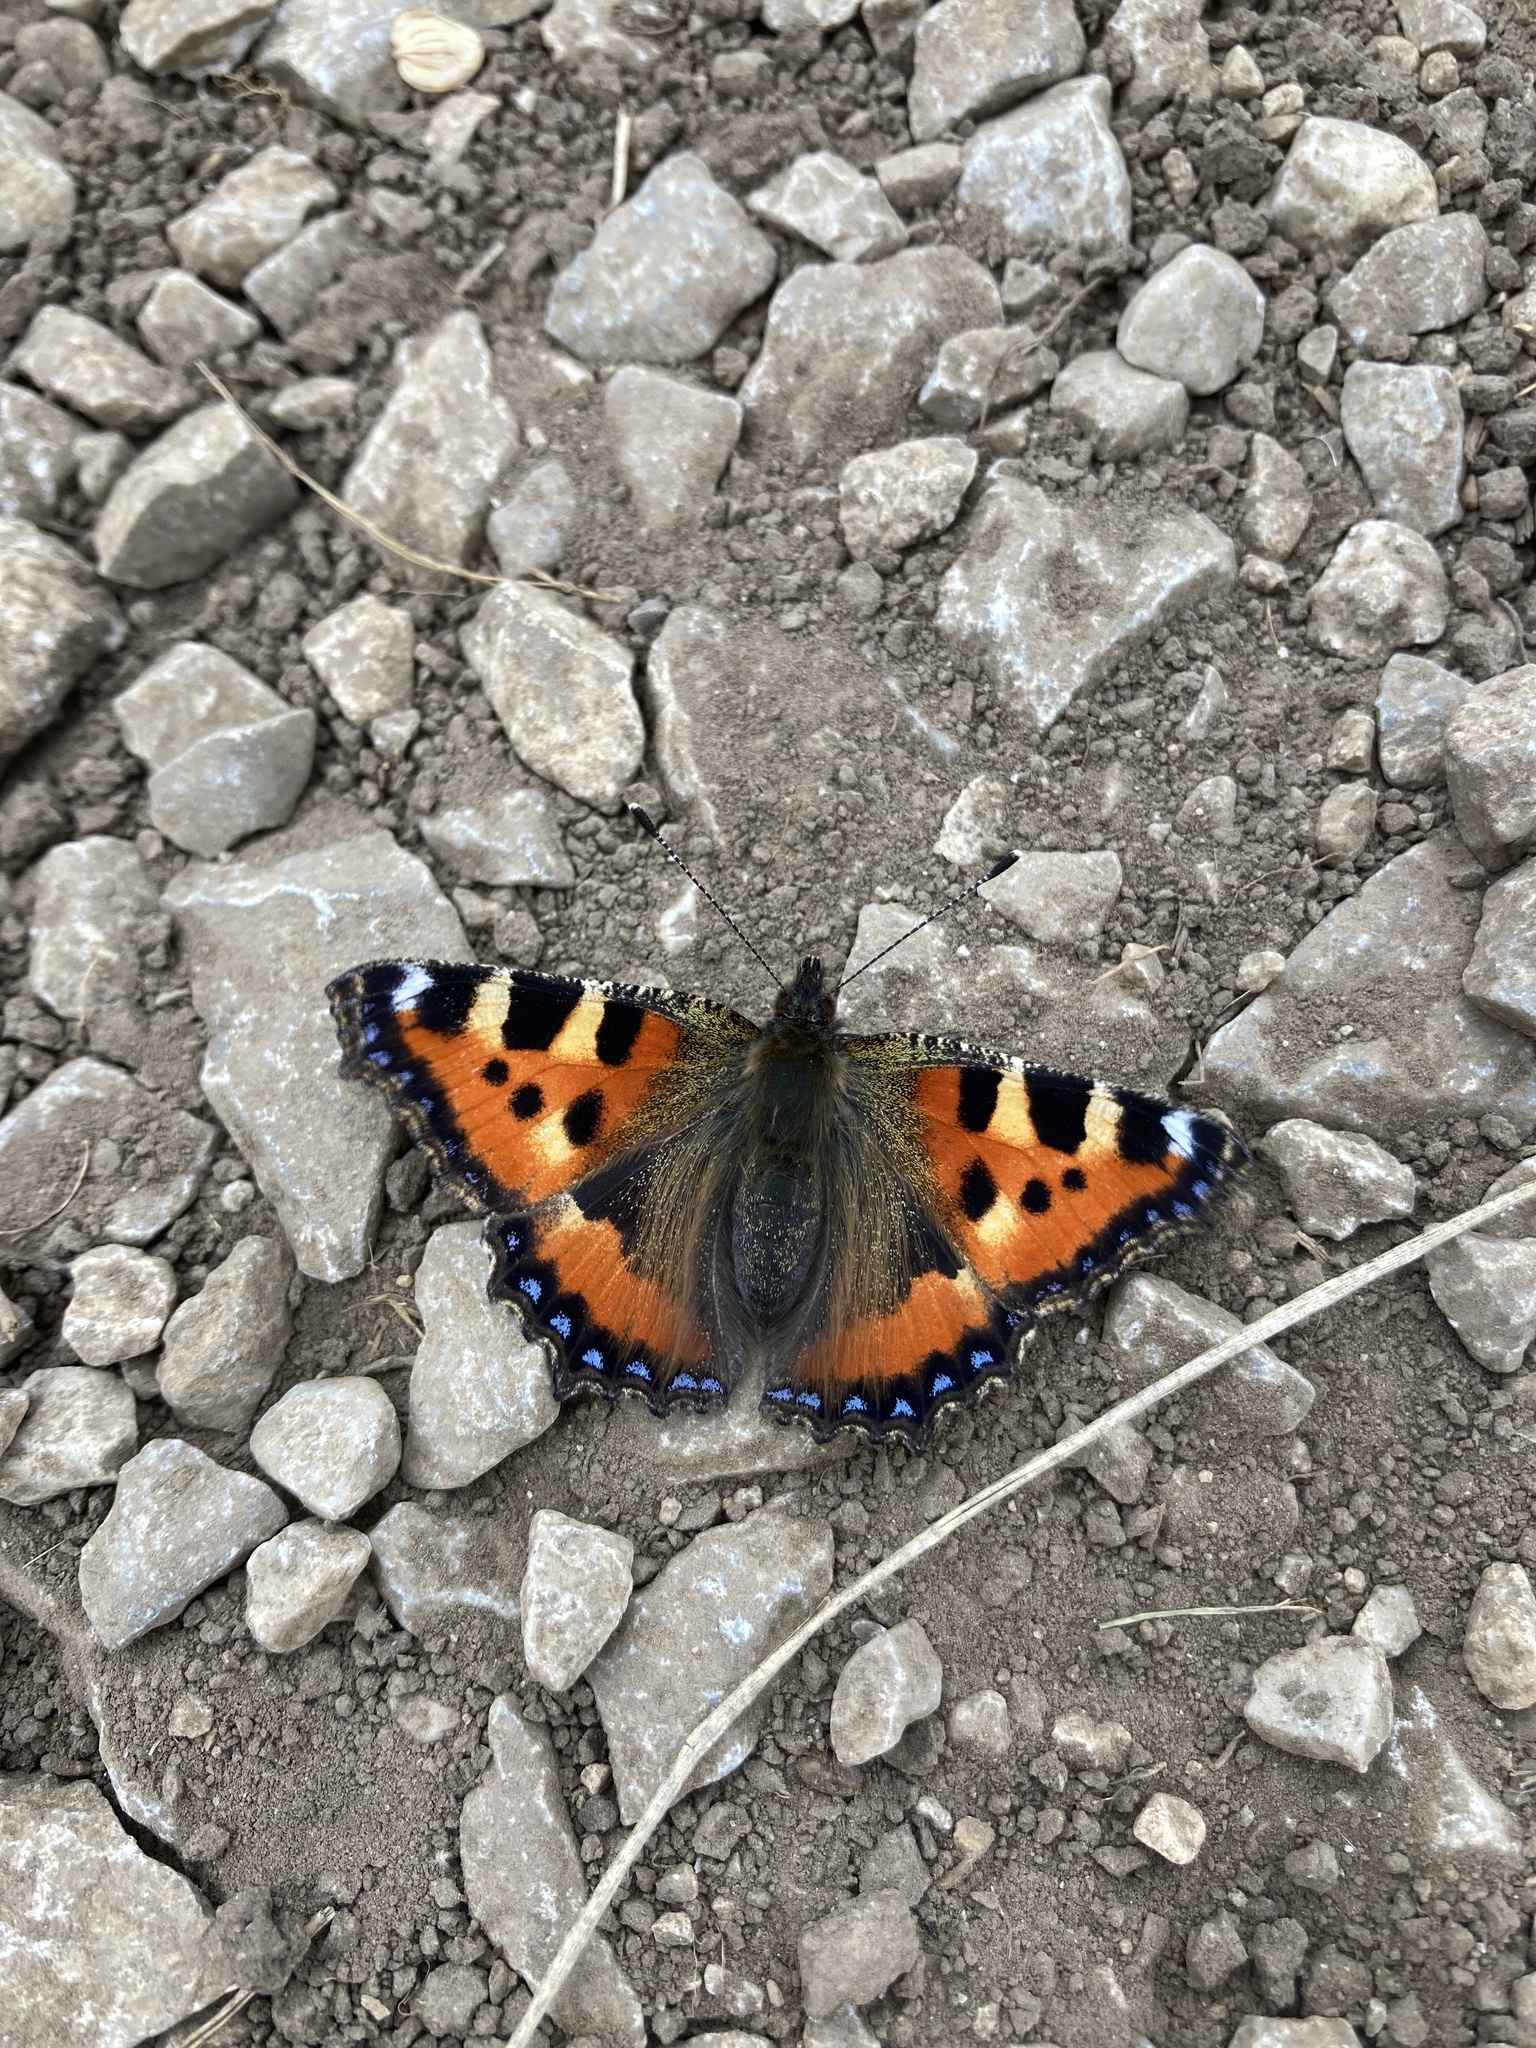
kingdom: Animalia
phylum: Arthropoda
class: Insecta
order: Lepidoptera
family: Nymphalidae
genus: Aglais
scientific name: Aglais urticae
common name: Small tortoiseshell
